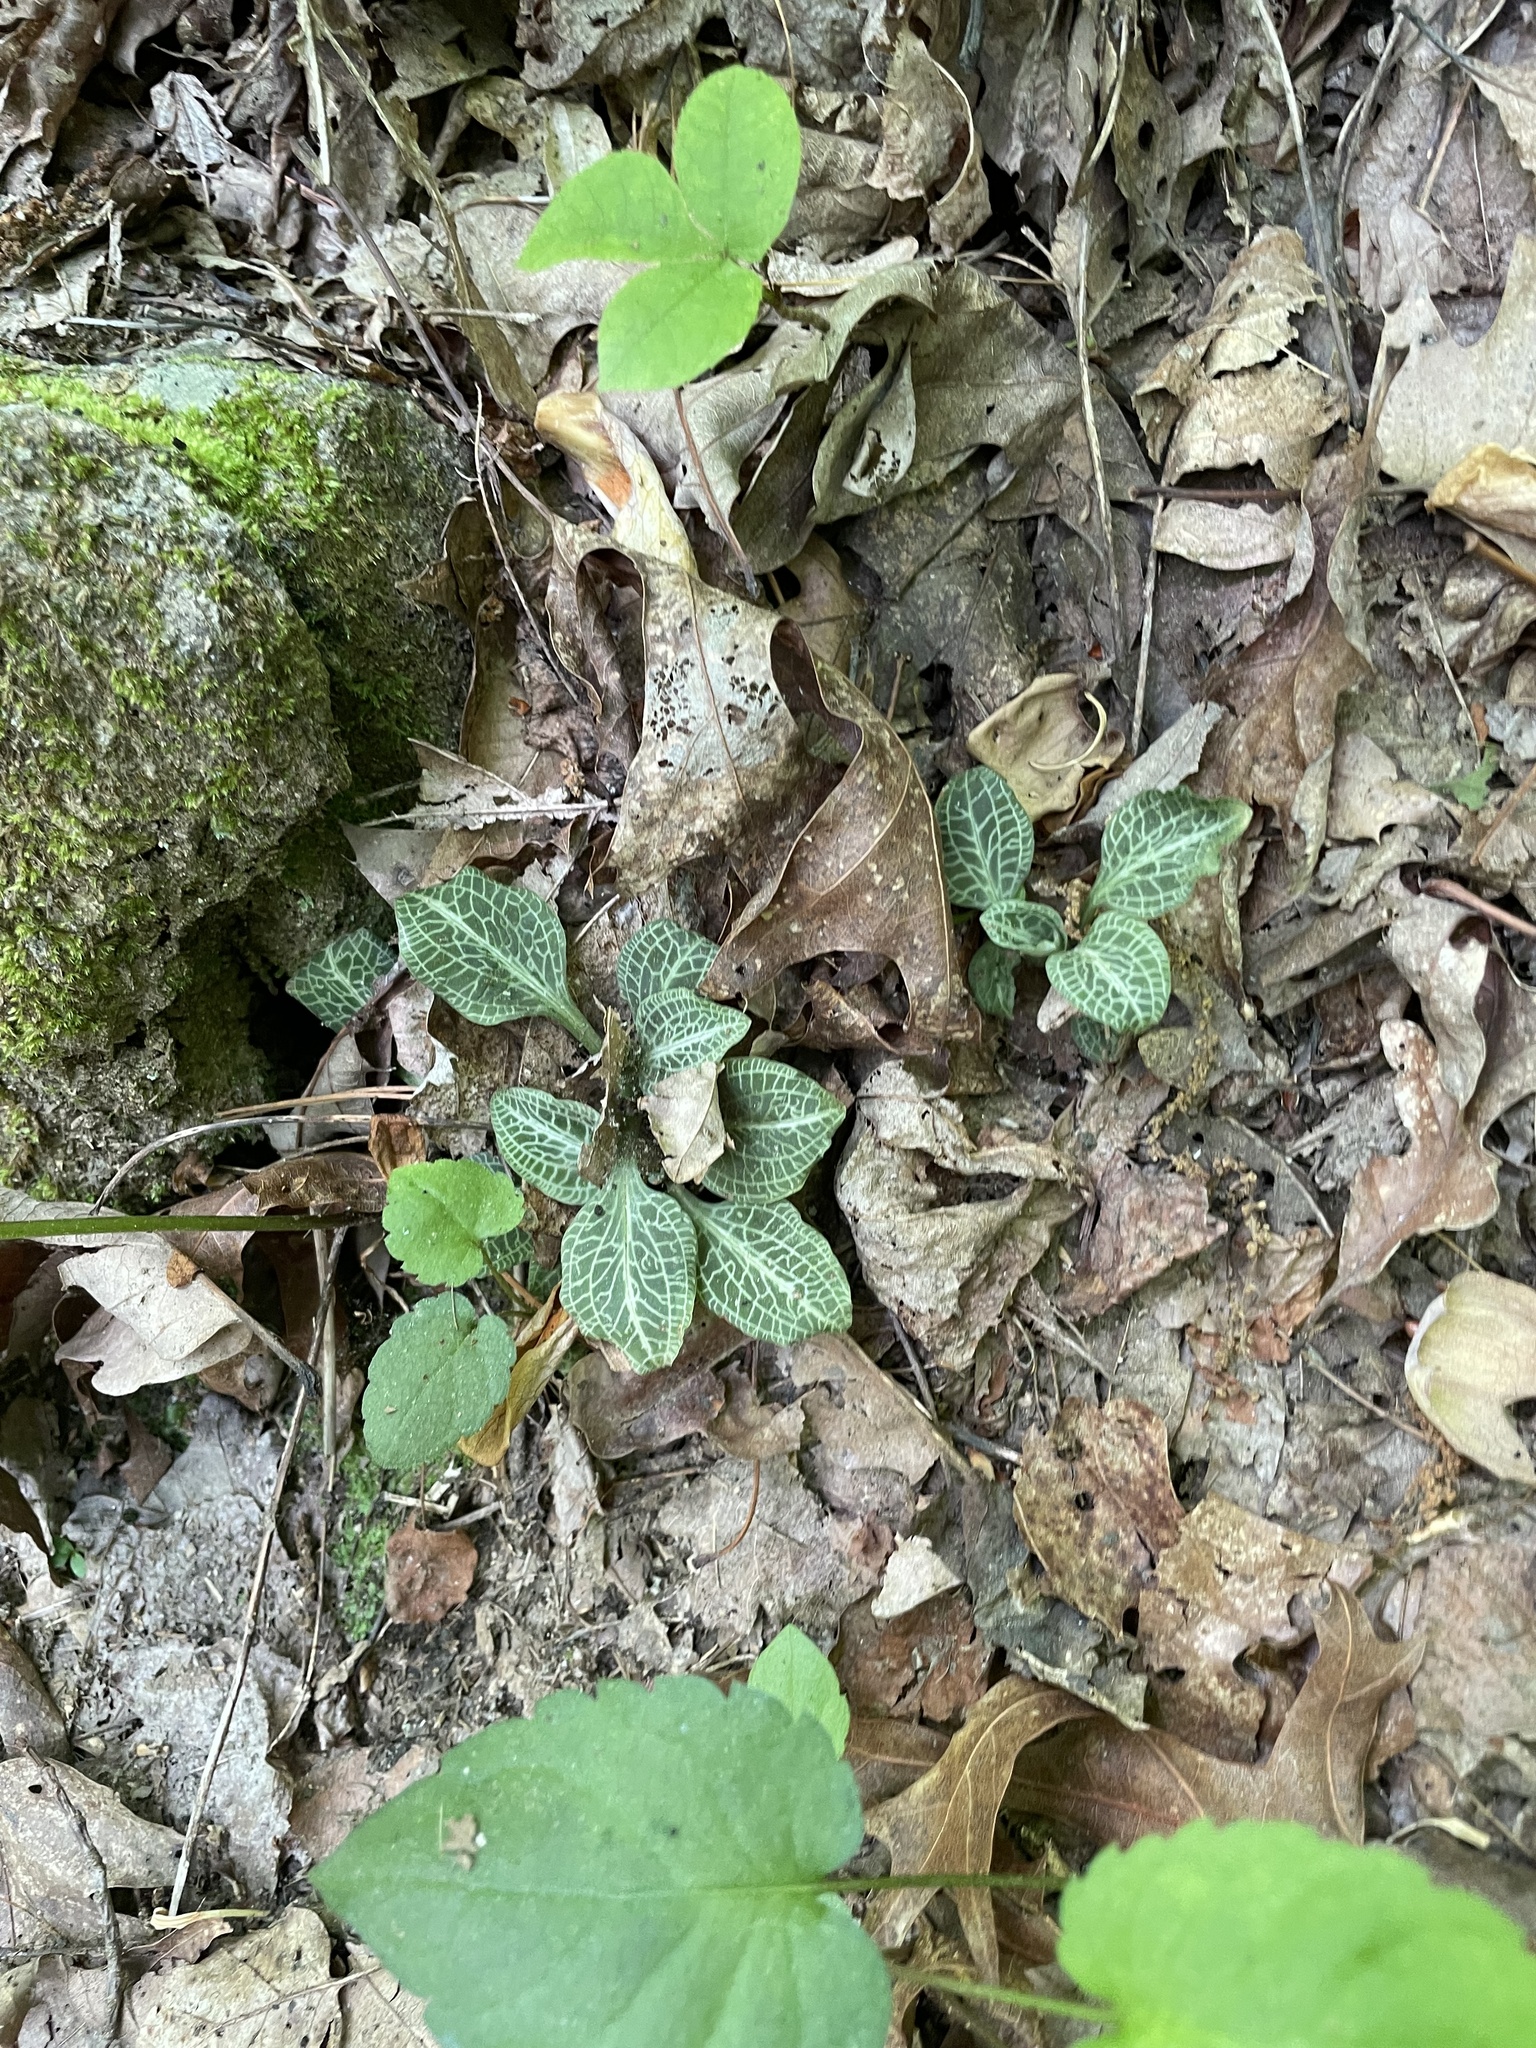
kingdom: Plantae
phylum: Tracheophyta
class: Liliopsida
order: Asparagales
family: Orchidaceae
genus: Goodyera
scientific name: Goodyera pubescens
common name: Downy rattlesnake-plantain
